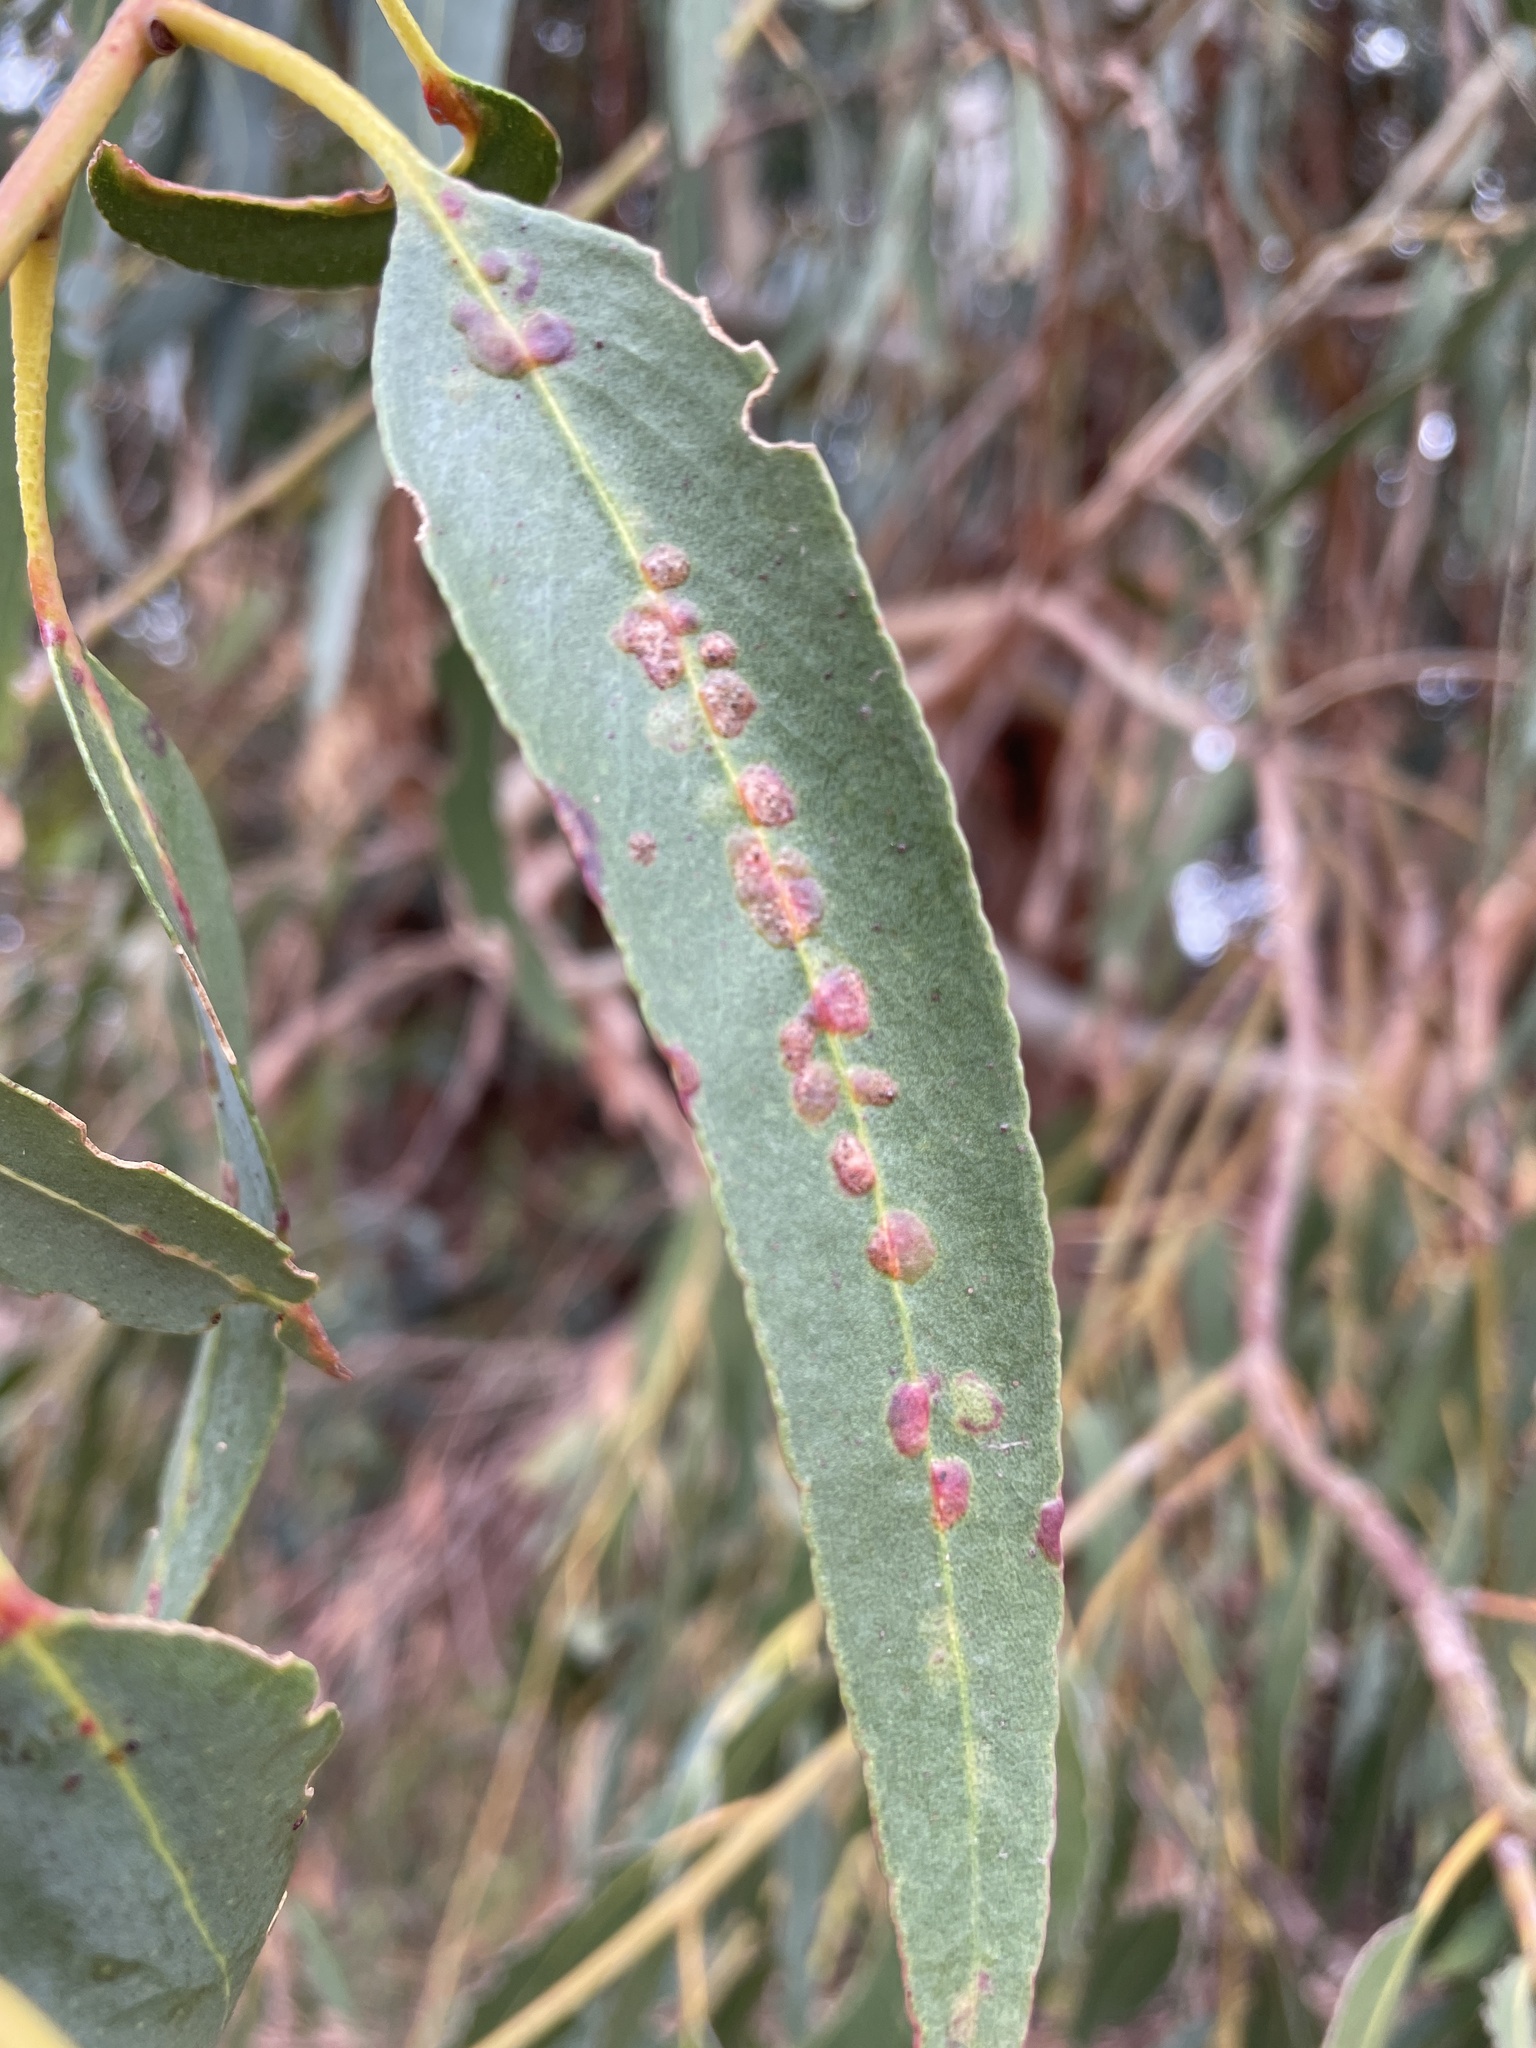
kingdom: Animalia
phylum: Arthropoda
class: Insecta
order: Hymenoptera
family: Eulophidae
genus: Ophelimus
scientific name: Ophelimus maskelli
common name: Gall wasp
